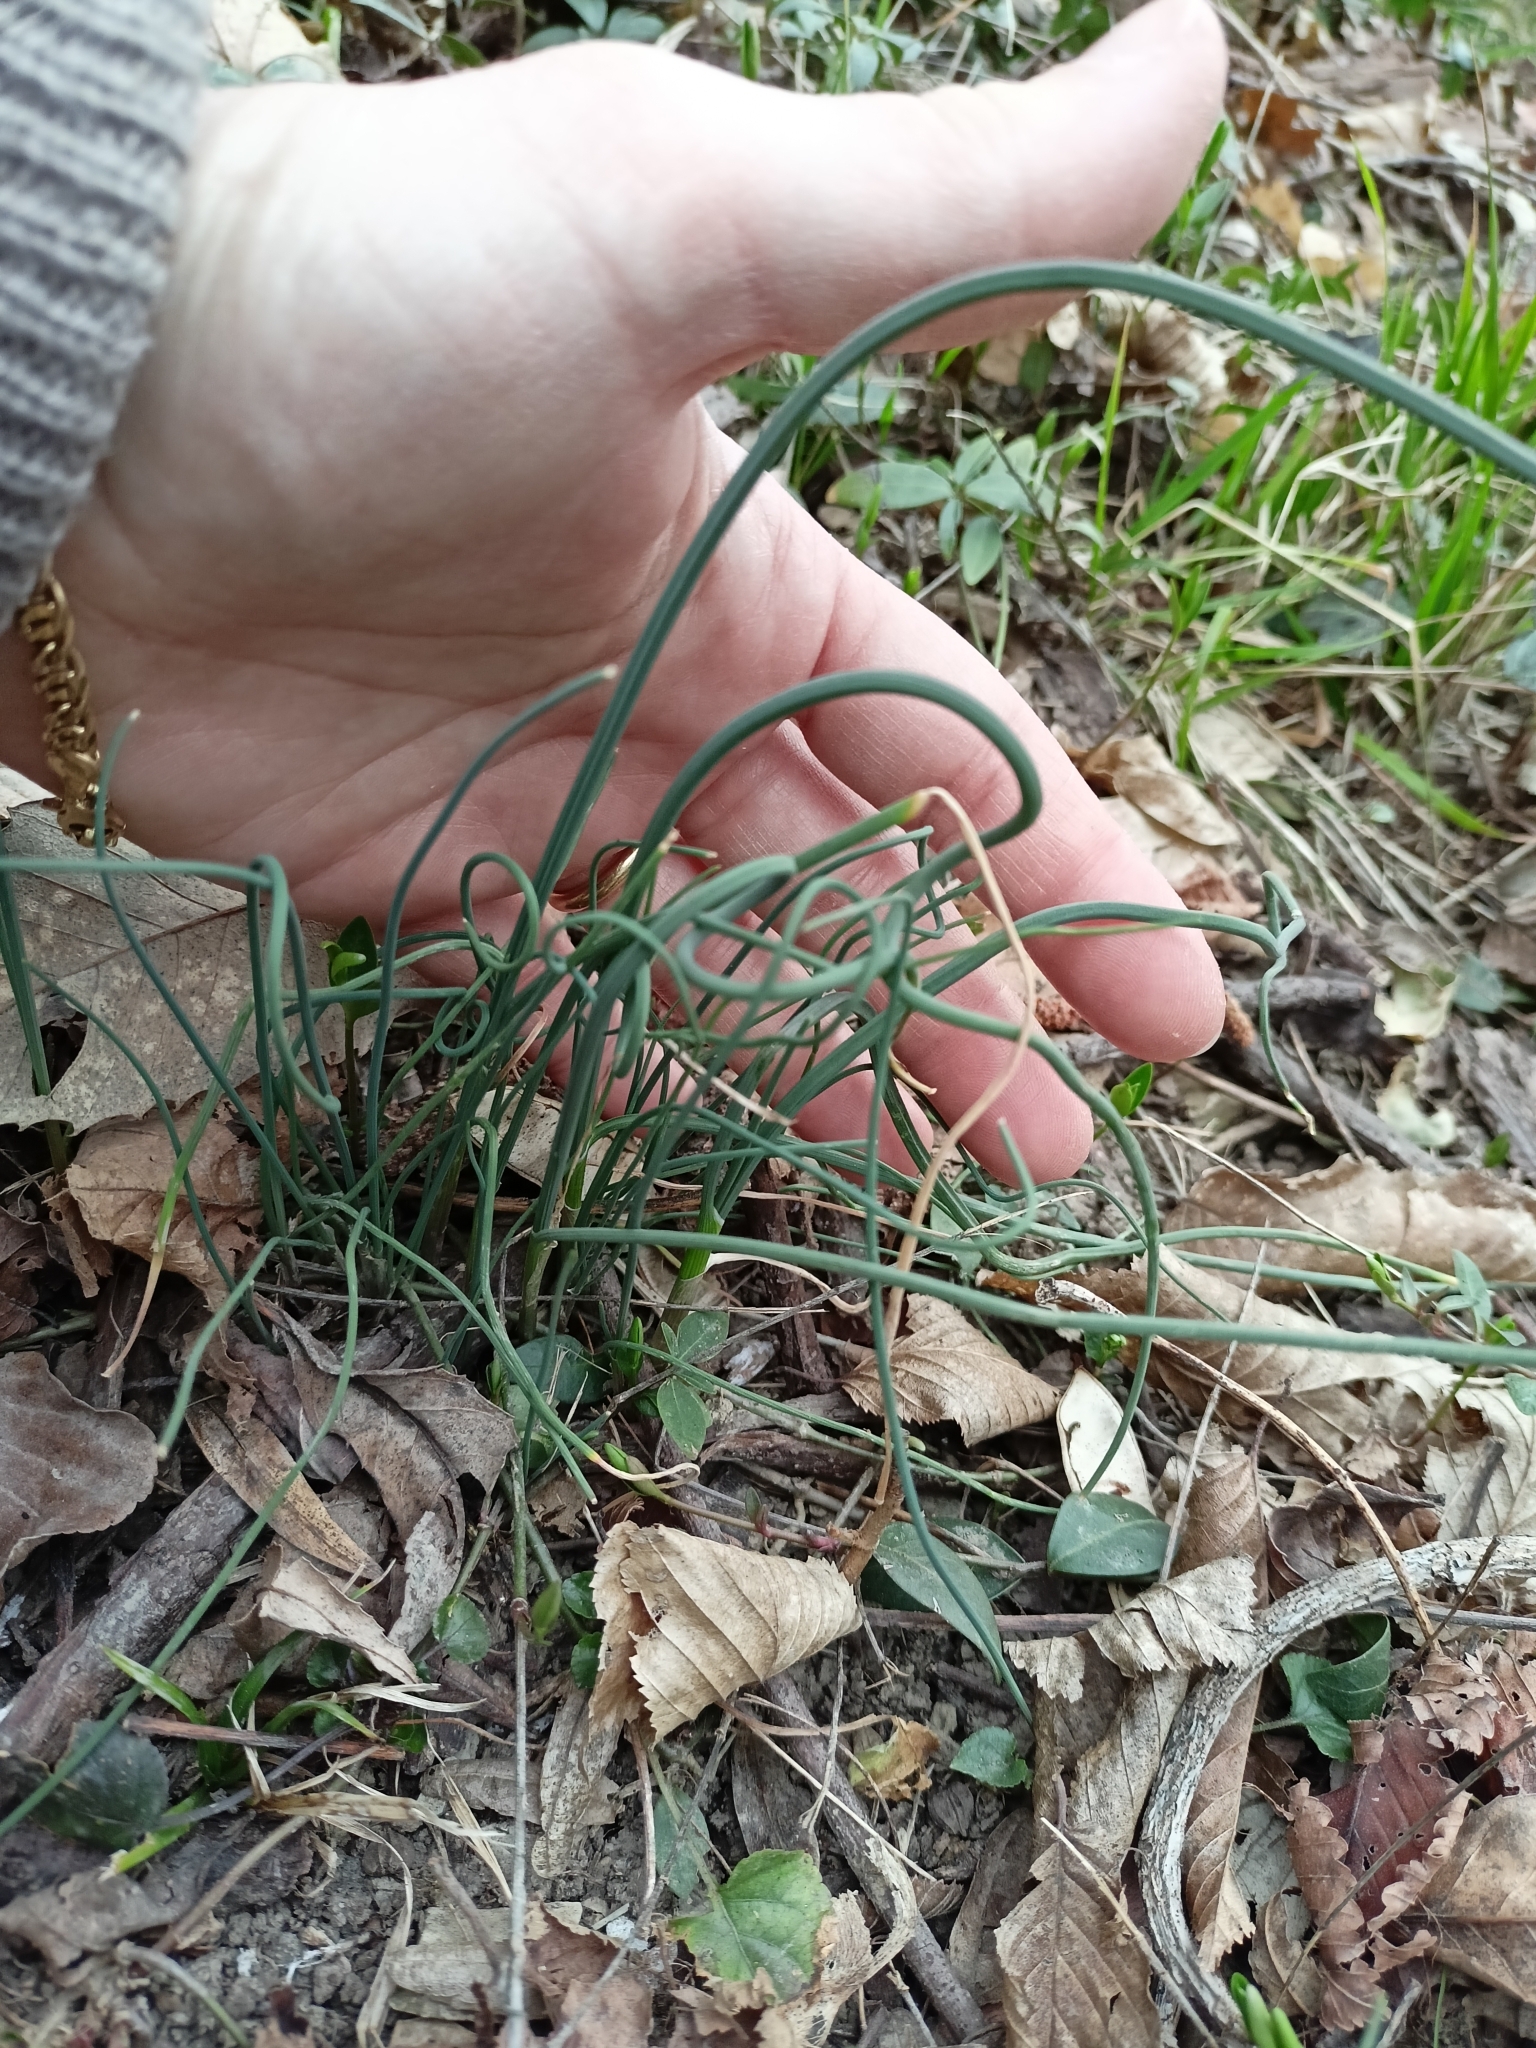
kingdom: Plantae
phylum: Tracheophyta
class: Liliopsida
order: Asparagales
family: Amaryllidaceae
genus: Allium
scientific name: Allium vineale
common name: Crow garlic
